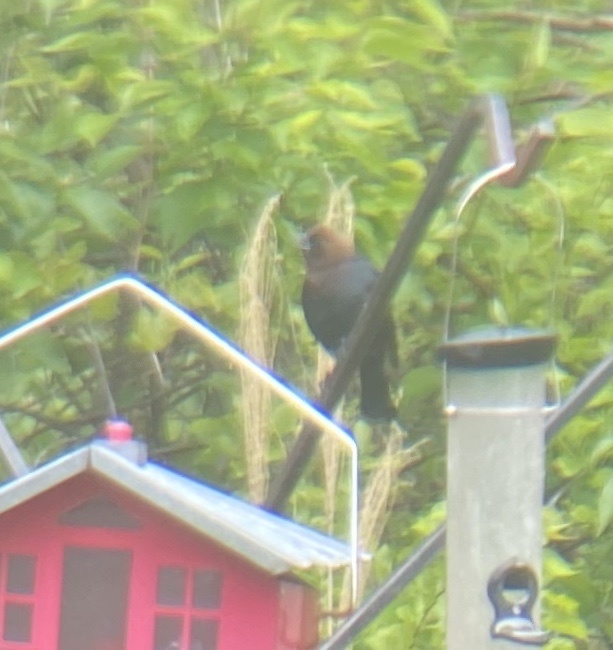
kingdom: Animalia
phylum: Chordata
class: Aves
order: Passeriformes
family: Icteridae
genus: Molothrus
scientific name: Molothrus ater
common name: Brown-headed cowbird
